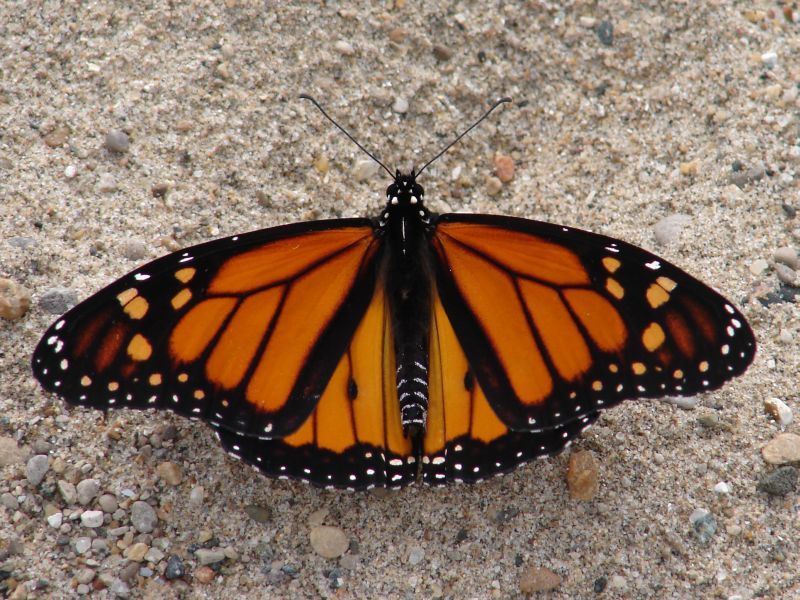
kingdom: Animalia
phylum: Arthropoda
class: Insecta
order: Lepidoptera
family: Nymphalidae
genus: Danaus
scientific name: Danaus plexippus
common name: Monarch
